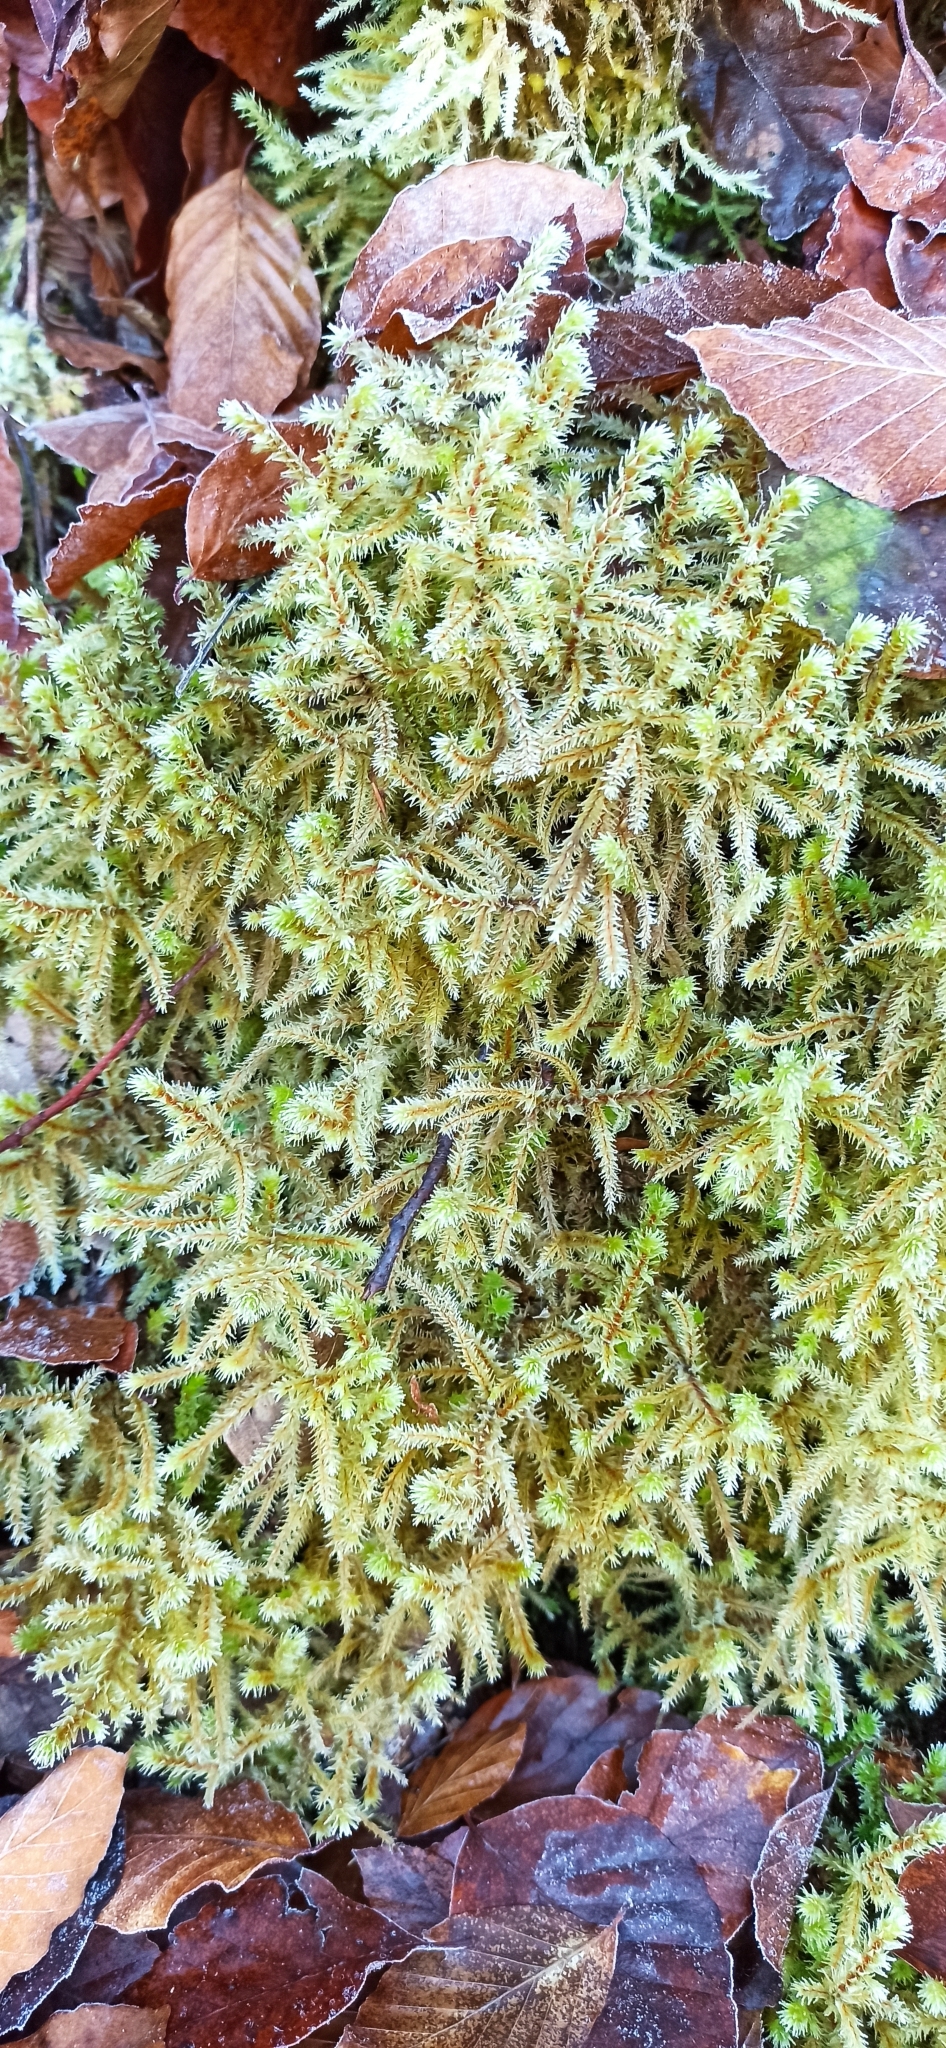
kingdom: Plantae
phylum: Bryophyta
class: Bryopsida
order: Hypnales
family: Hylocomiaceae
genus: Rhytidiadelphus
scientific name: Rhytidiadelphus loreus
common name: Lanky moss
